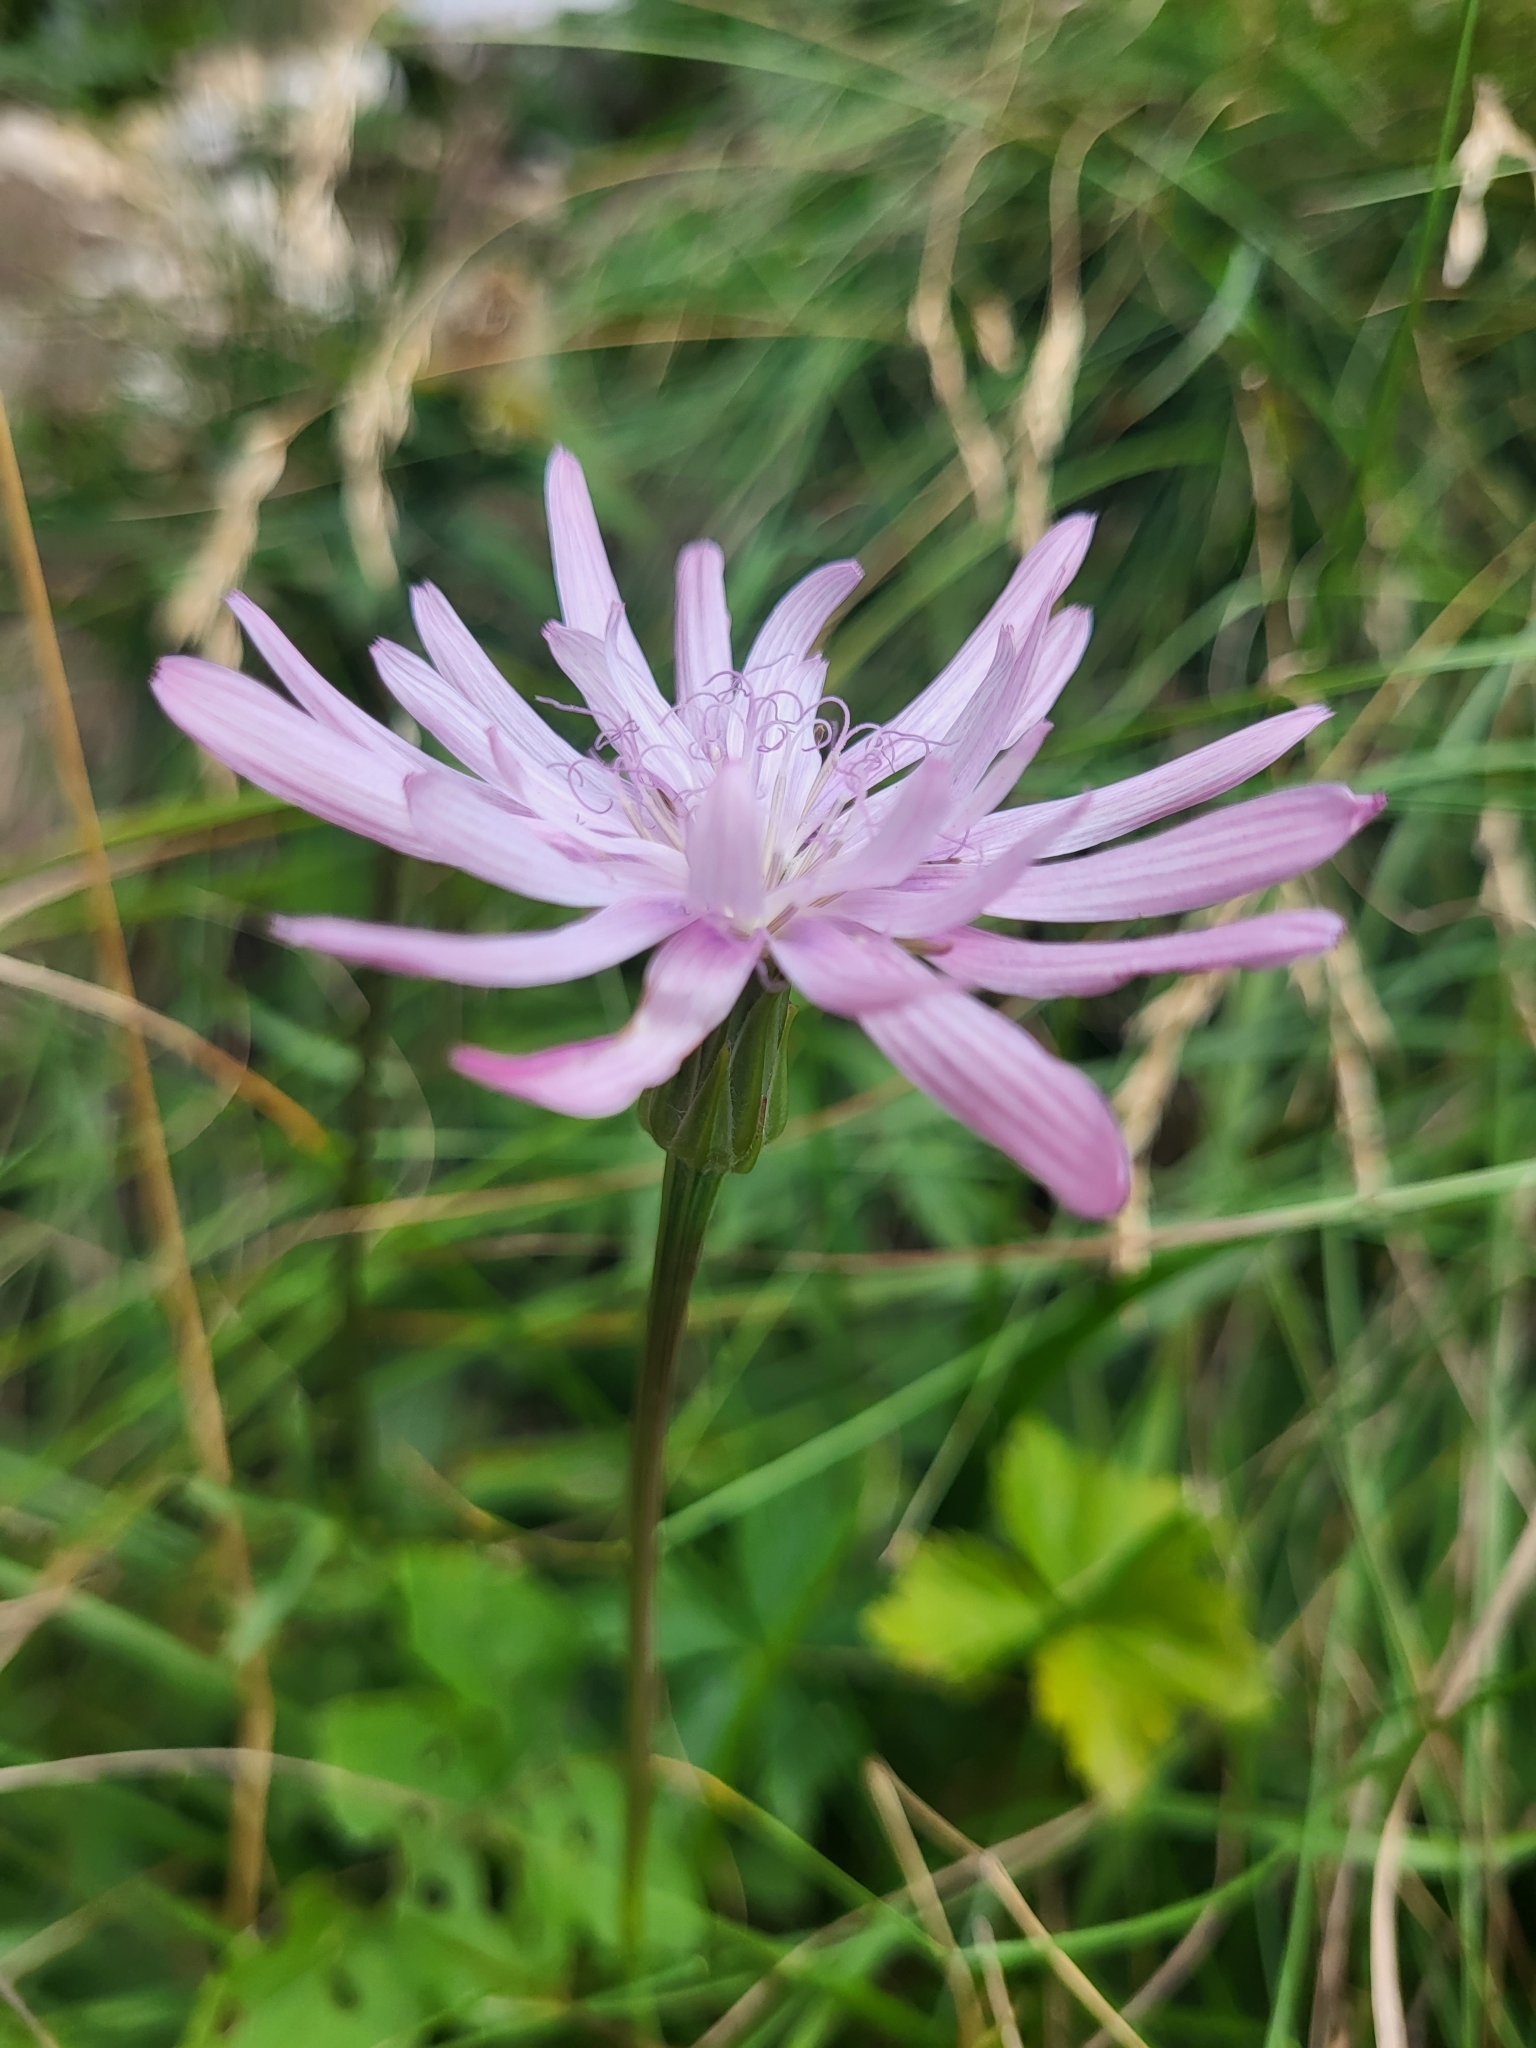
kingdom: Plantae
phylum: Tracheophyta
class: Magnoliopsida
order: Asterales
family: Asteraceae
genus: Scorzonera
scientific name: Scorzonera rosea
